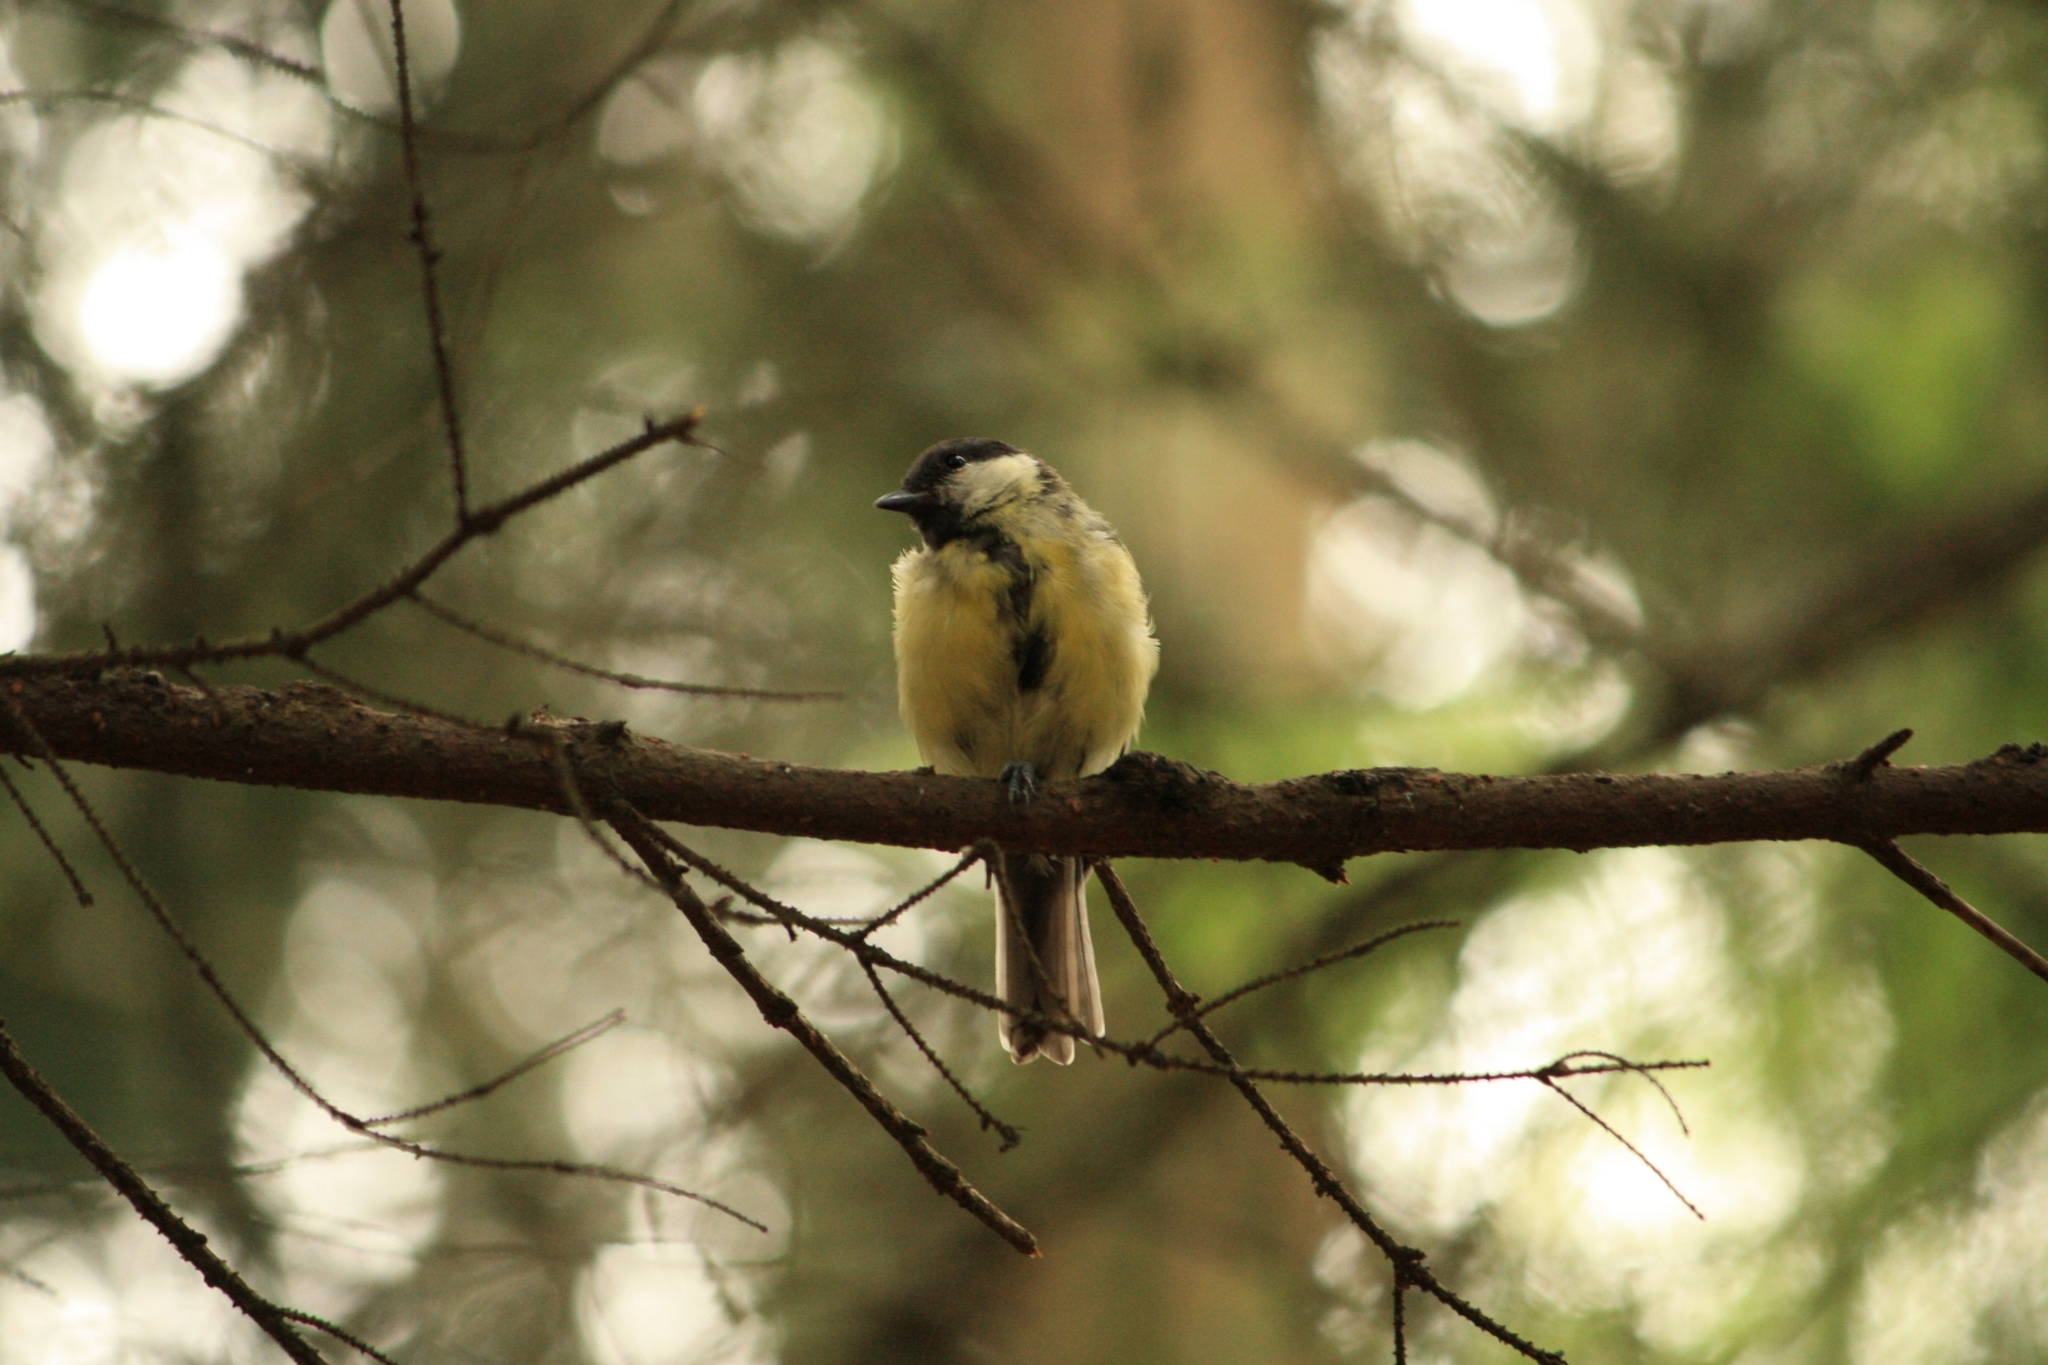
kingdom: Animalia
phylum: Chordata
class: Aves
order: Passeriformes
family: Paridae
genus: Parus
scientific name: Parus major
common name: Great tit
